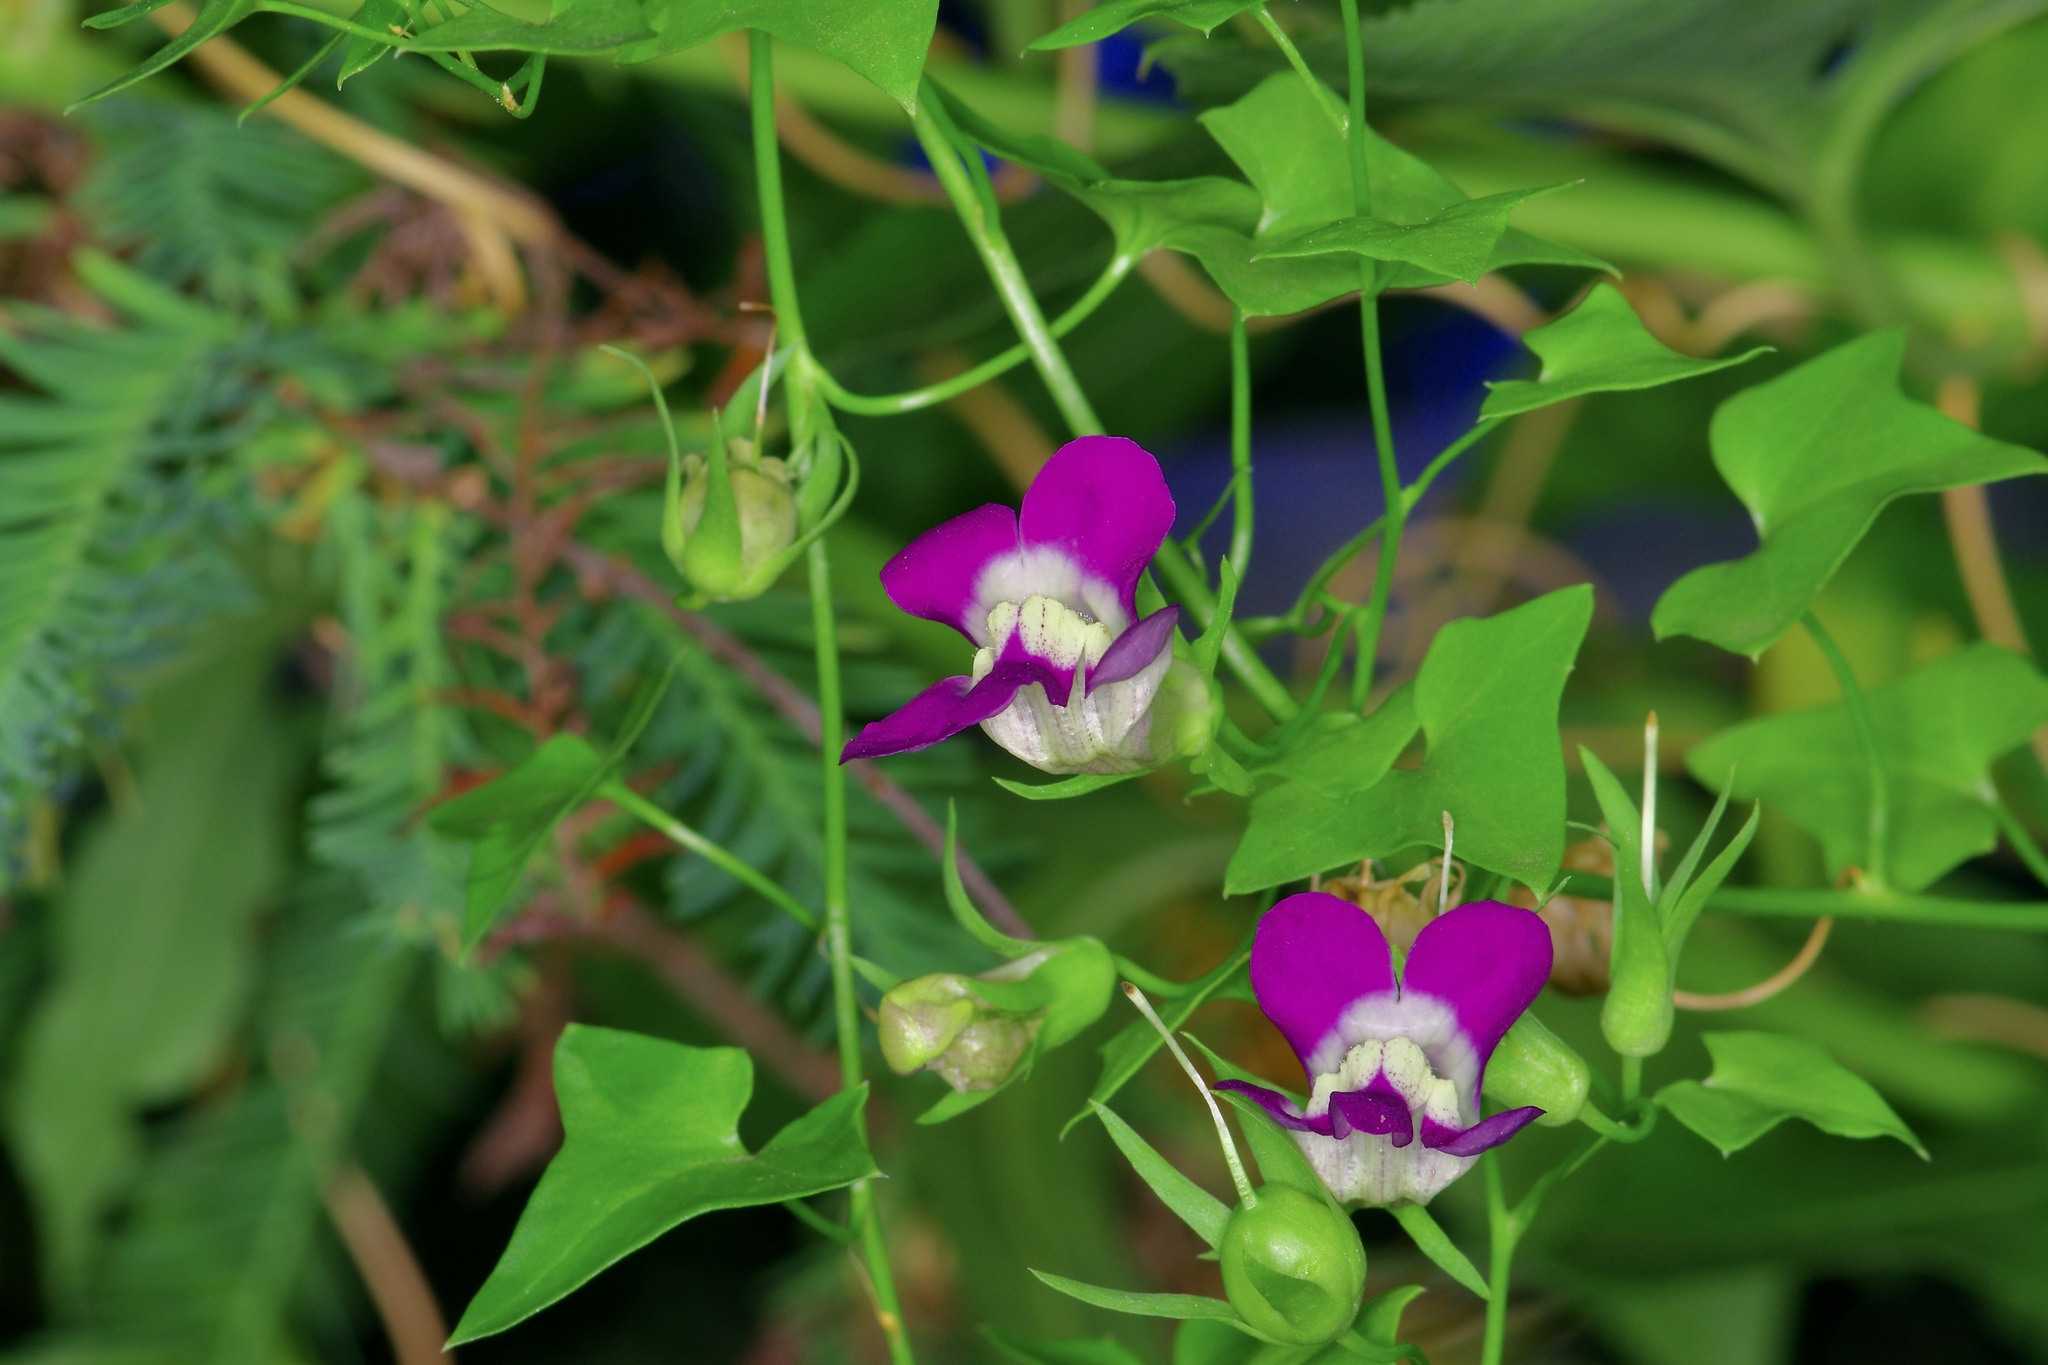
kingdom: Plantae
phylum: Tracheophyta
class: Magnoliopsida
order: Lamiales
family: Plantaginaceae
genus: Maurandella
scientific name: Maurandella antirrhiniflora
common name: Violet twining-snapdragon
